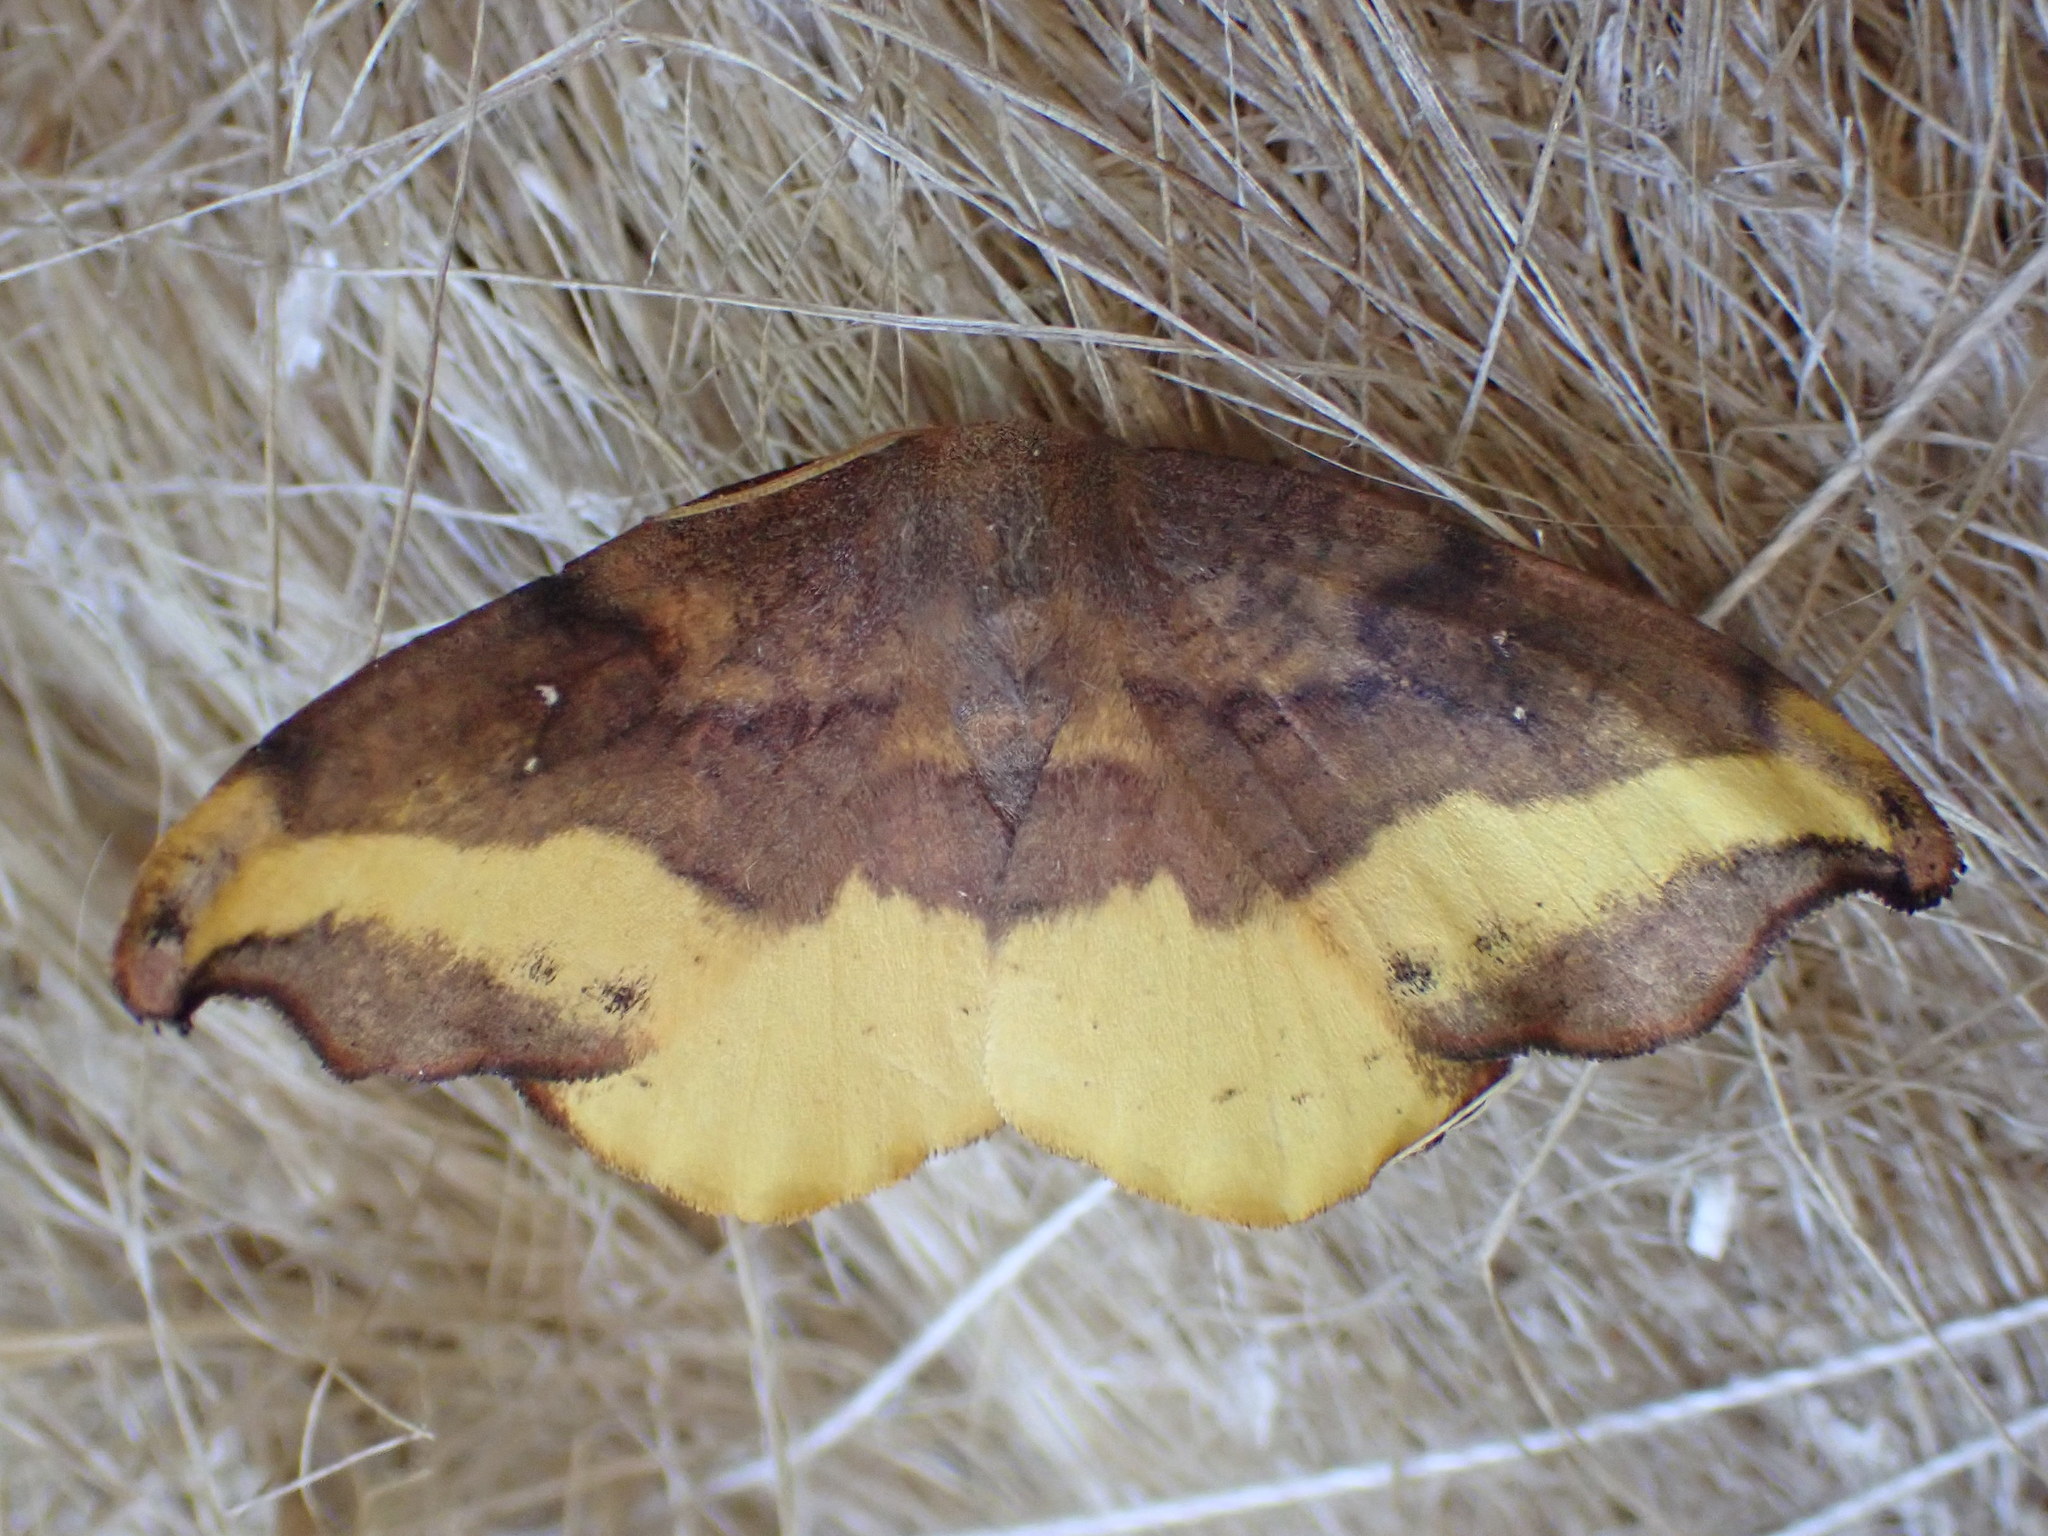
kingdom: Animalia
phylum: Arthropoda
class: Insecta
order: Lepidoptera
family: Drepanidae
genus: Oreta
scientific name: Oreta rosea
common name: Rose hooktip
